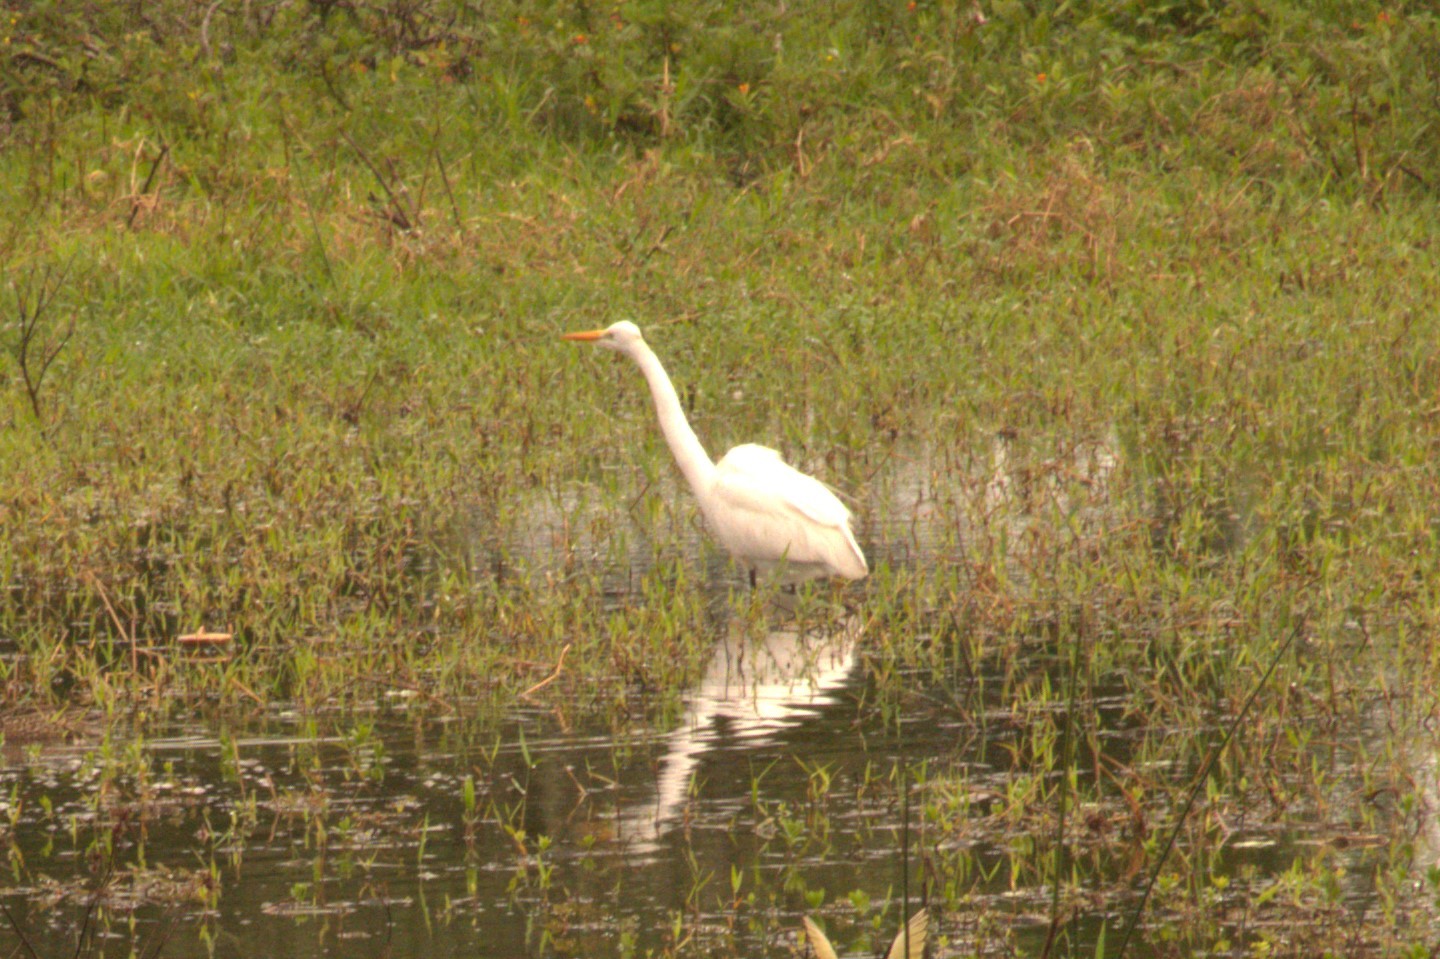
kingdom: Animalia
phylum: Chordata
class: Aves
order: Pelecaniformes
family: Ardeidae
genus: Ardea
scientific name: Ardea alba
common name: Great egret
